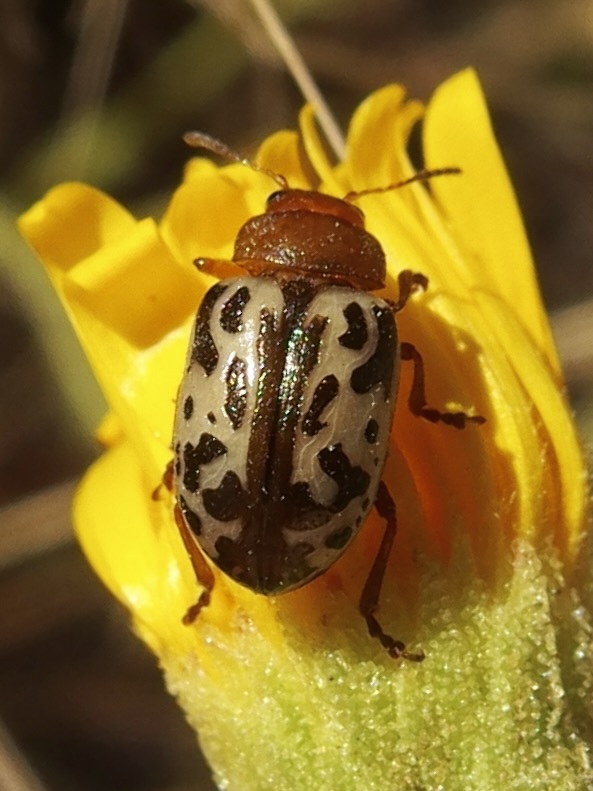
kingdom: Animalia
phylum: Arthropoda
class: Insecta
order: Coleoptera
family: Chrysomelidae
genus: Calligrapha
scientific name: Calligrapha
